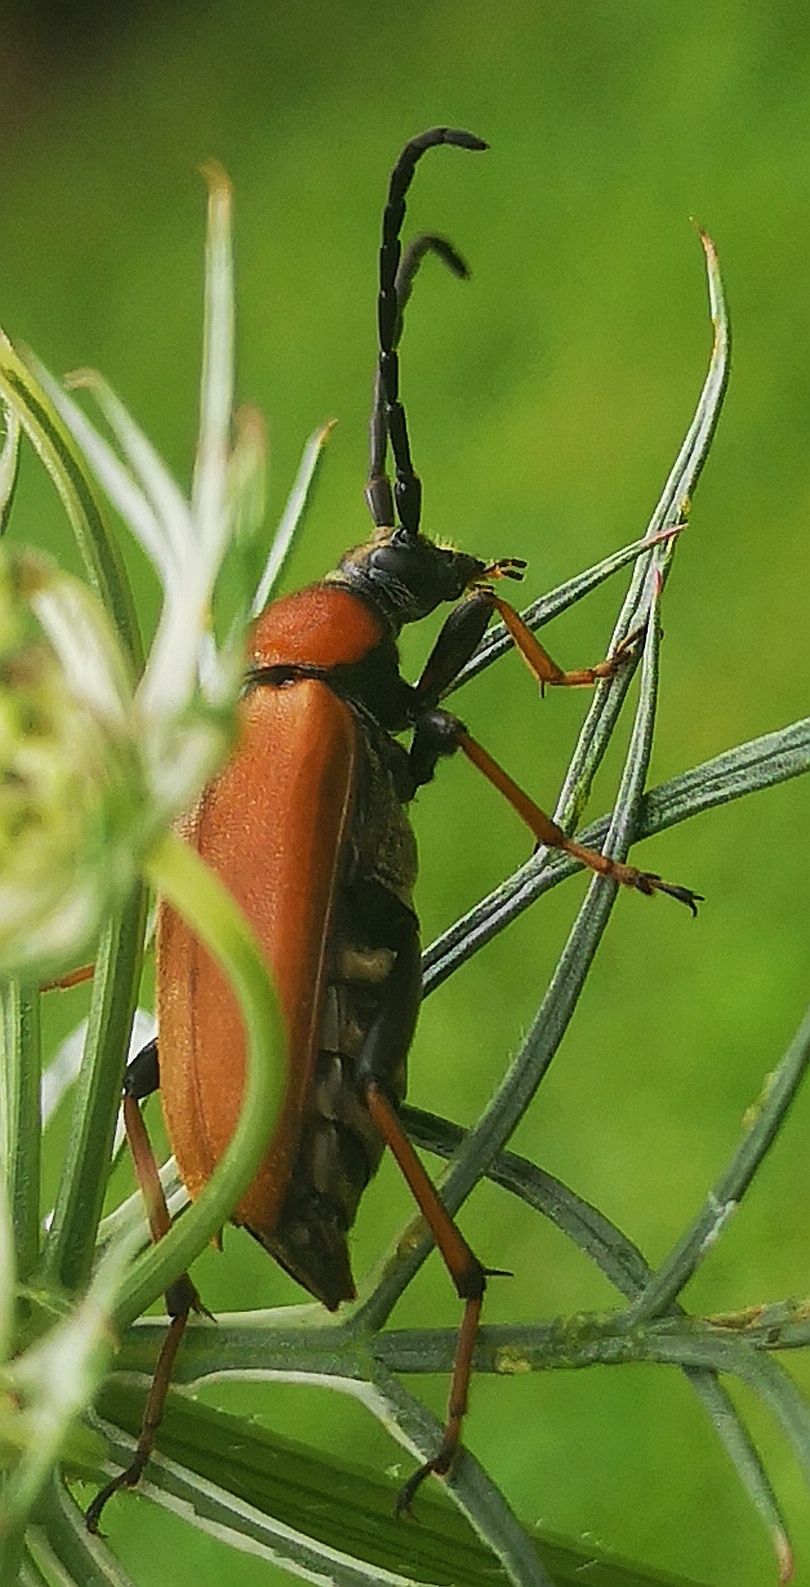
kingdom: Animalia
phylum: Arthropoda
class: Insecta
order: Coleoptera
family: Cerambycidae
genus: Stictoleptura
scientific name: Stictoleptura rubra
